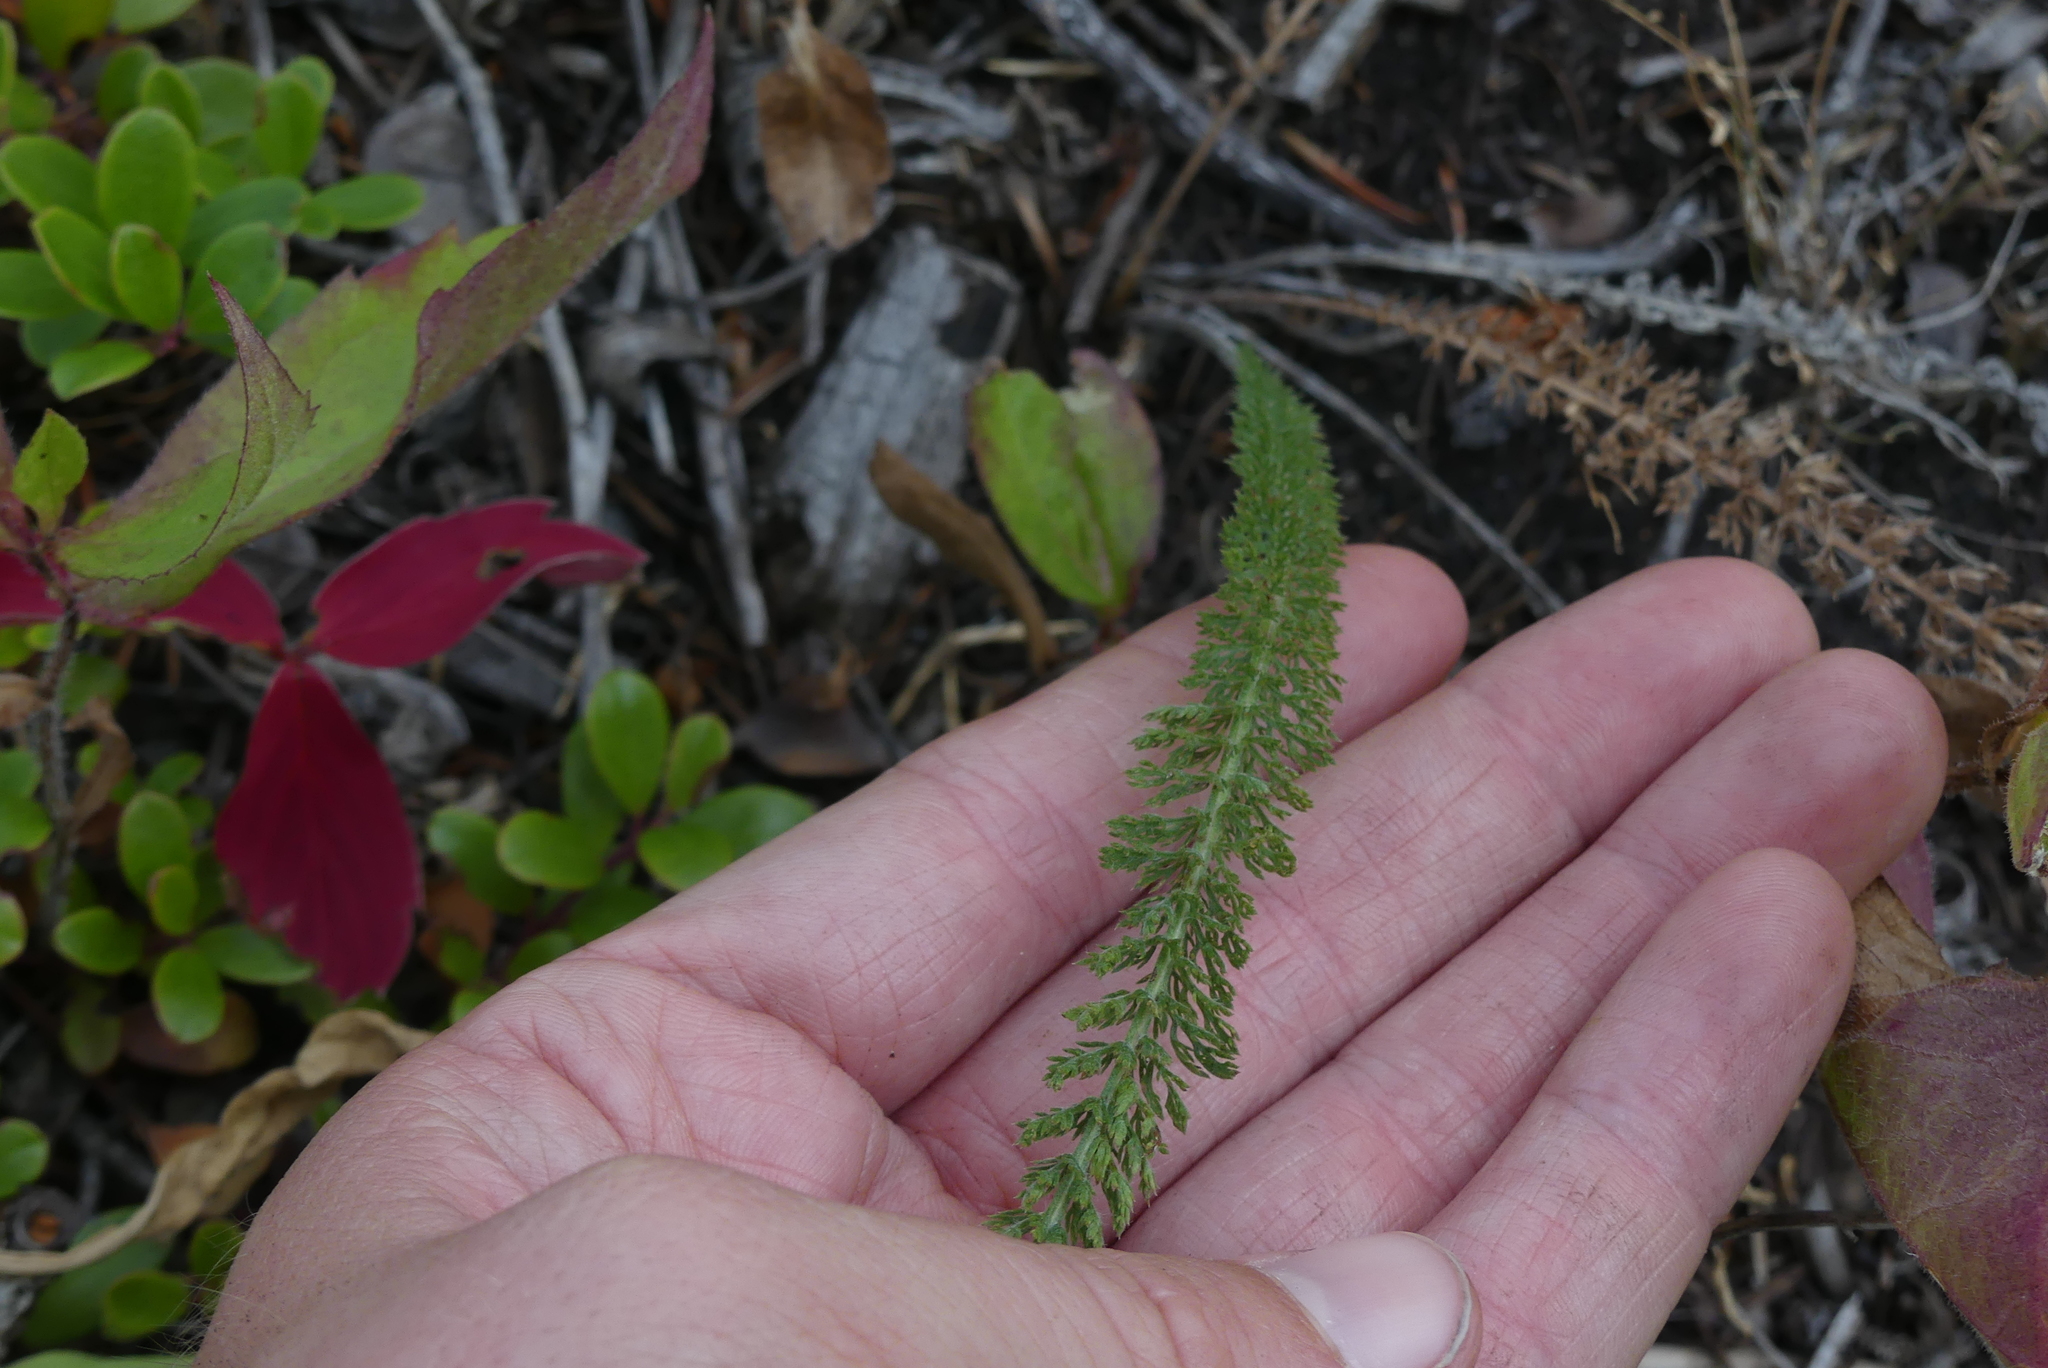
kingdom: Plantae
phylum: Tracheophyta
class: Magnoliopsida
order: Asterales
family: Asteraceae
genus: Achillea
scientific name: Achillea millefolium
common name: Yarrow
